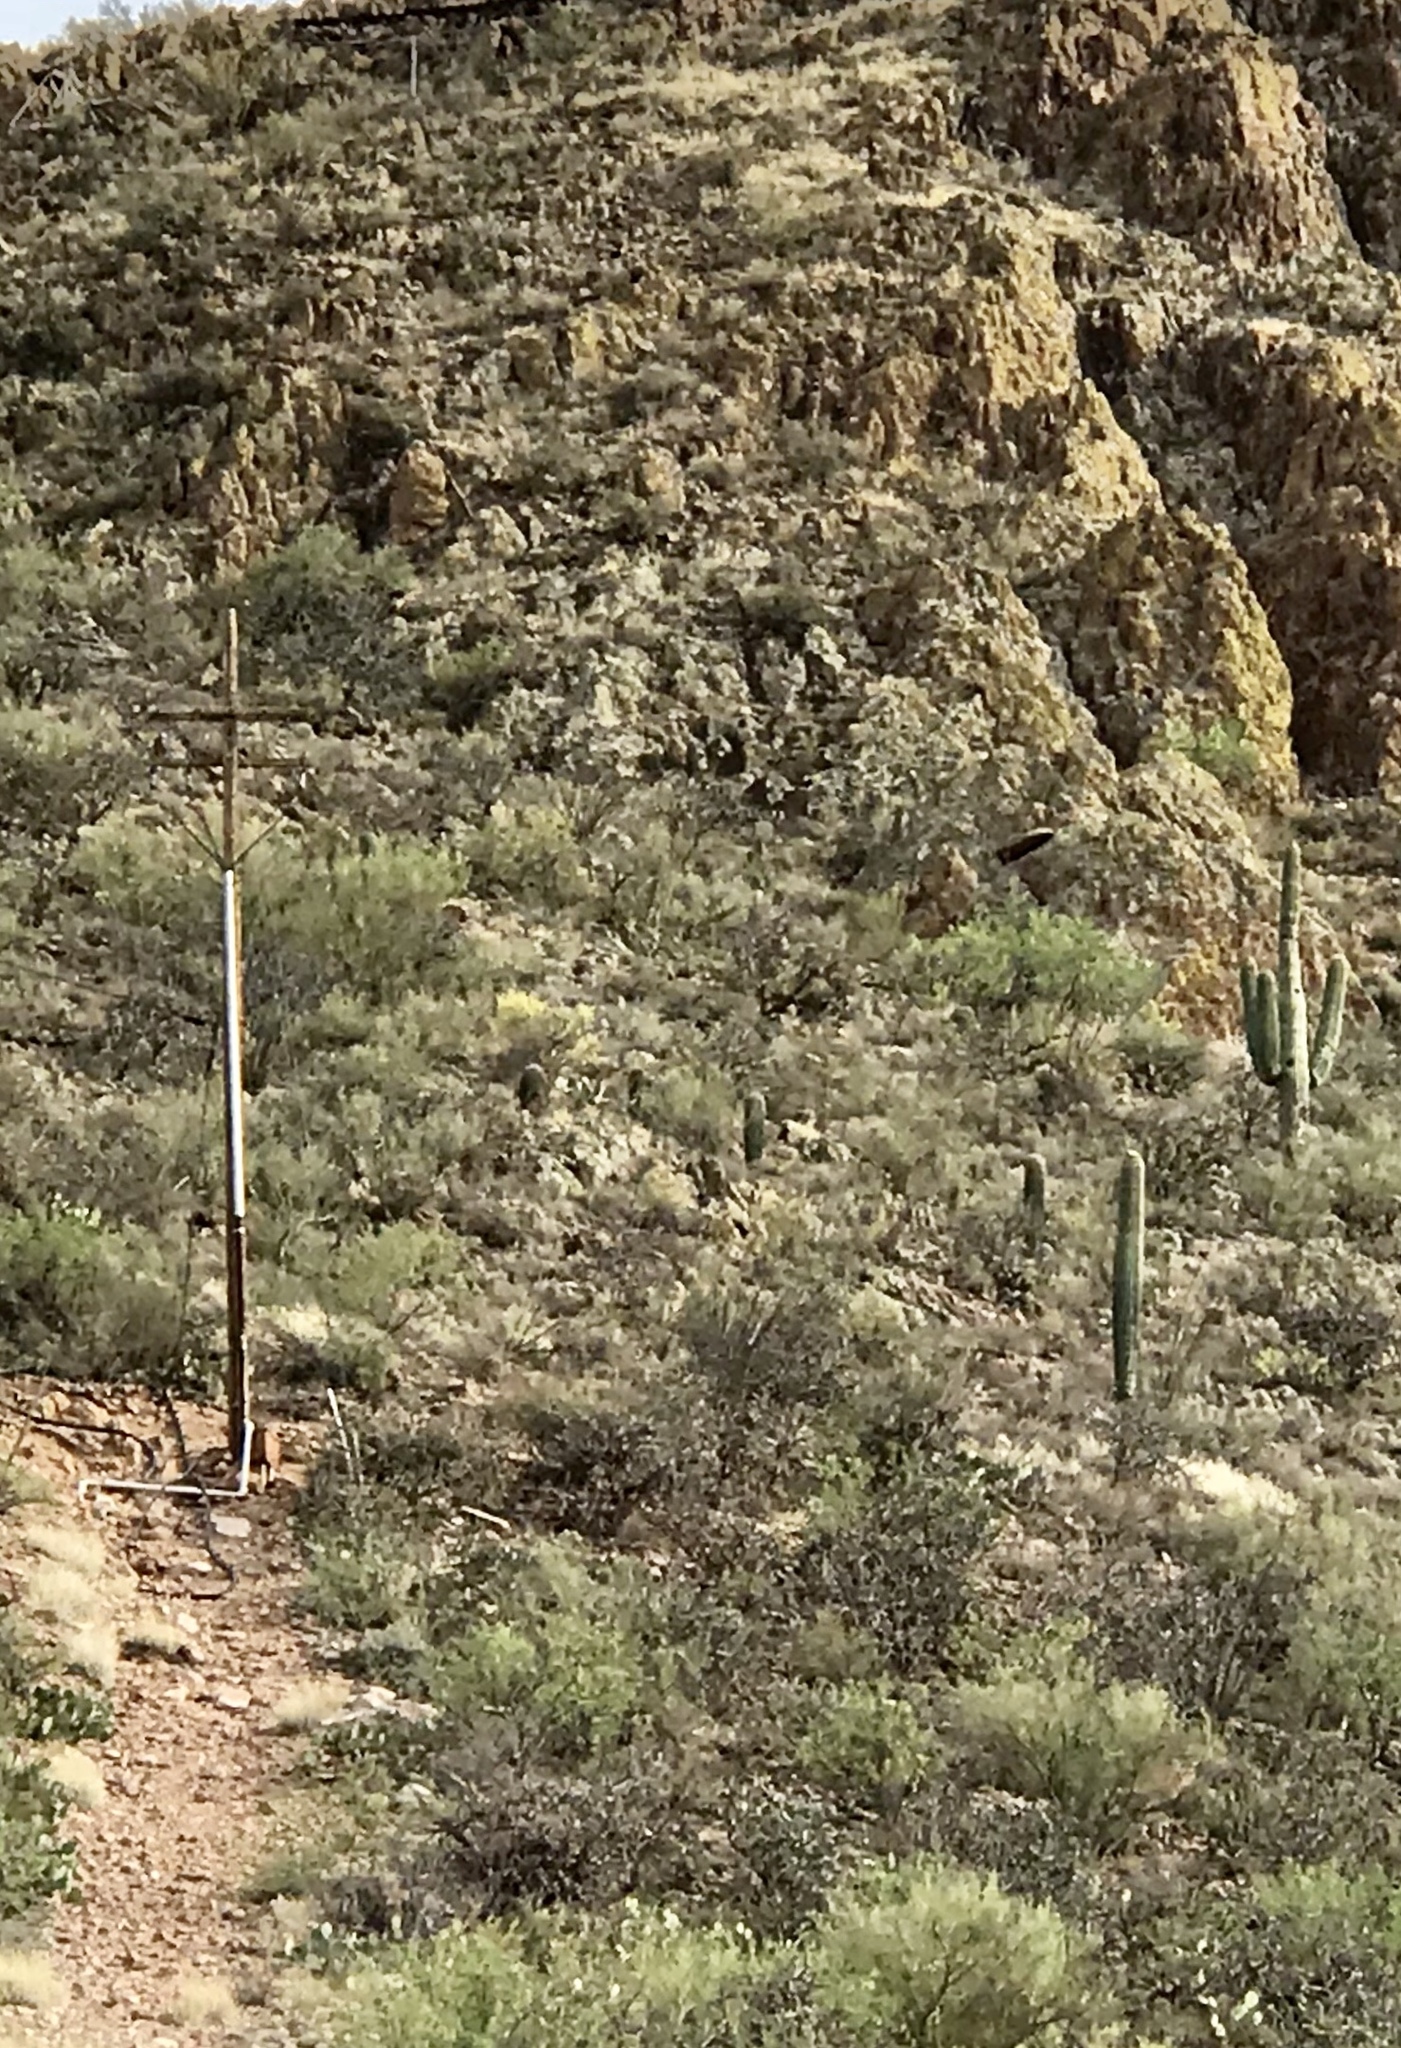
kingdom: Plantae
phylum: Tracheophyta
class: Magnoliopsida
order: Caryophyllales
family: Cactaceae
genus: Carnegiea
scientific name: Carnegiea gigantea
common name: Saguaro
